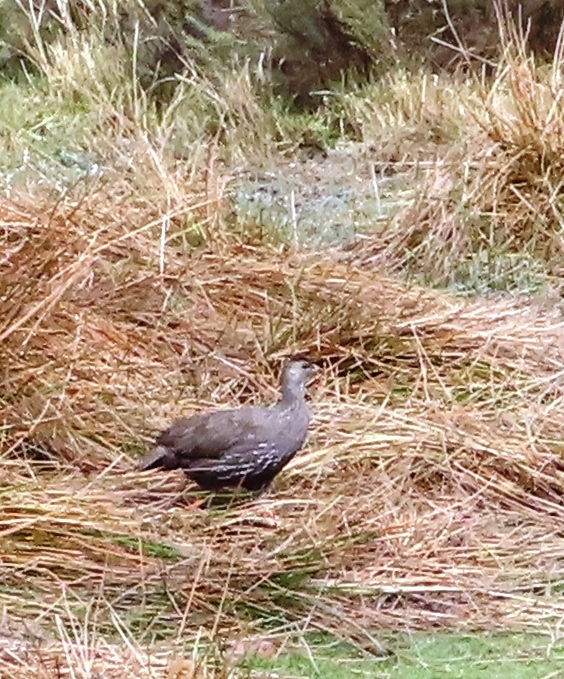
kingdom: Animalia
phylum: Chordata
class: Aves
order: Galliformes
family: Phasianidae
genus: Pternistis
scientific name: Pternistis capensis
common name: Cape spurfowl
